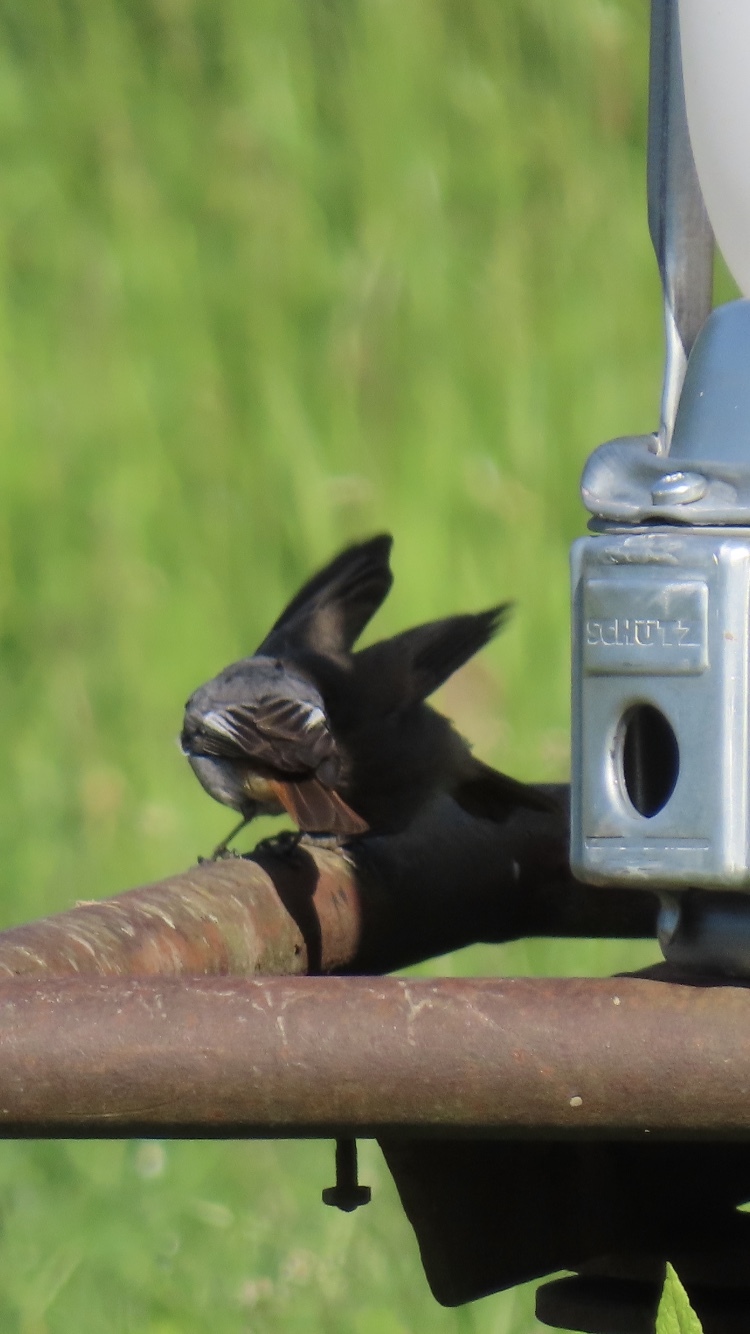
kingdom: Animalia
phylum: Chordata
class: Aves
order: Passeriformes
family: Muscicapidae
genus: Phoenicurus
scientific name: Phoenicurus ochruros
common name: Black redstart
